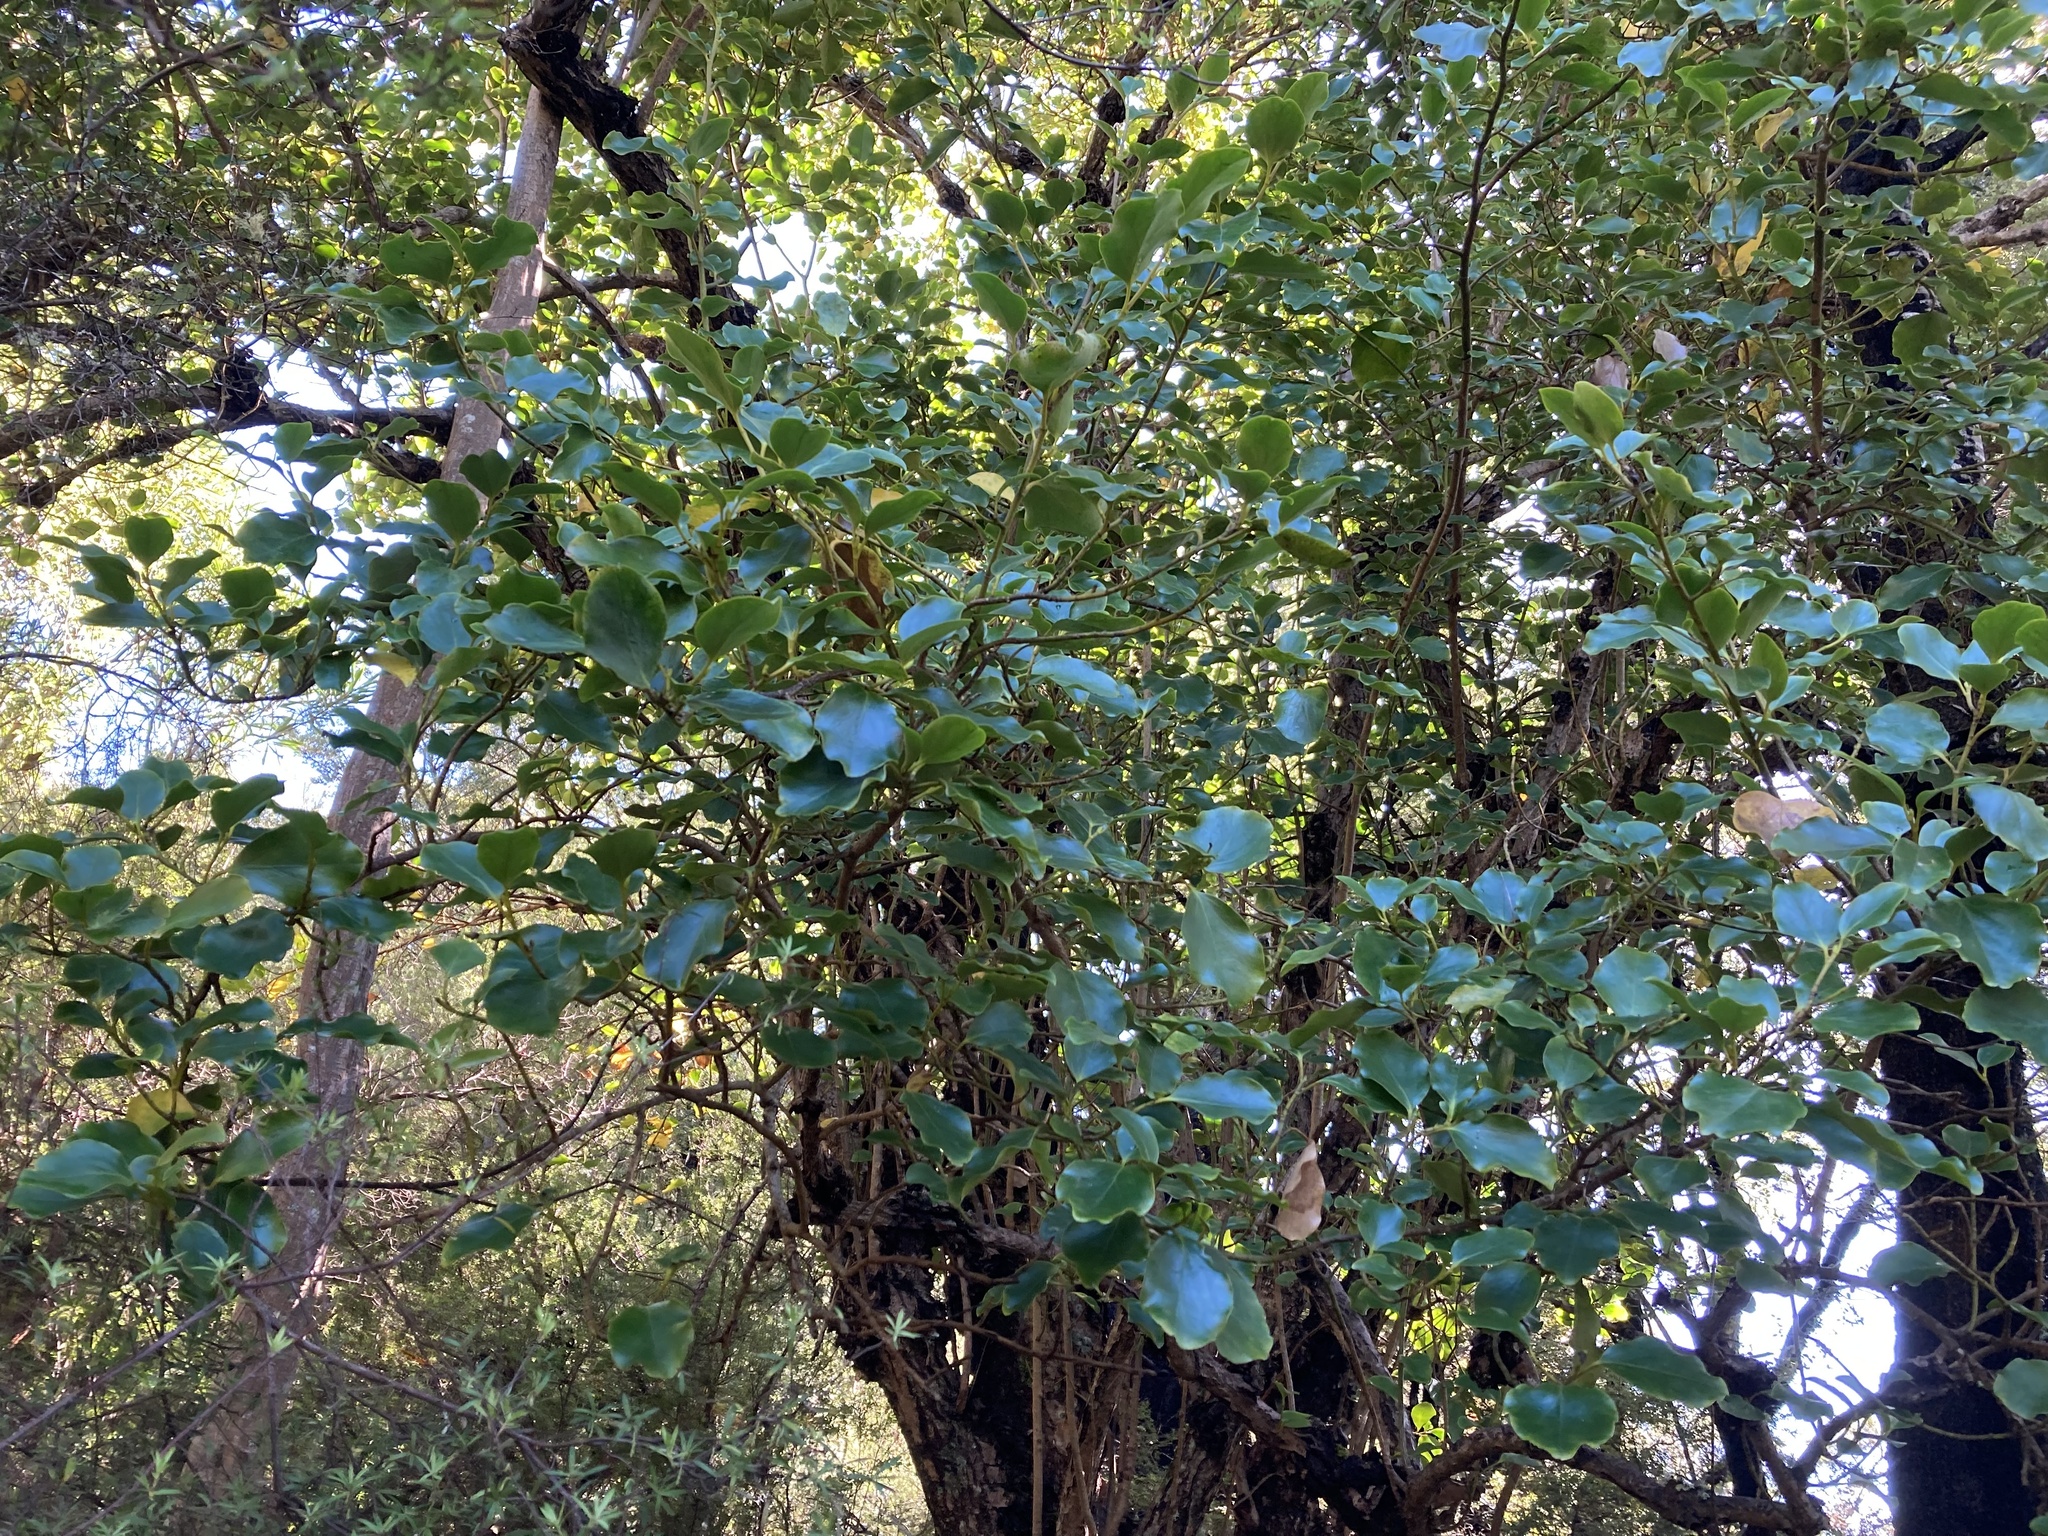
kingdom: Plantae
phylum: Tracheophyta
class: Magnoliopsida
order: Apiales
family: Griseliniaceae
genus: Griselinia
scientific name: Griselinia littoralis
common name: New zealand broadleaf
